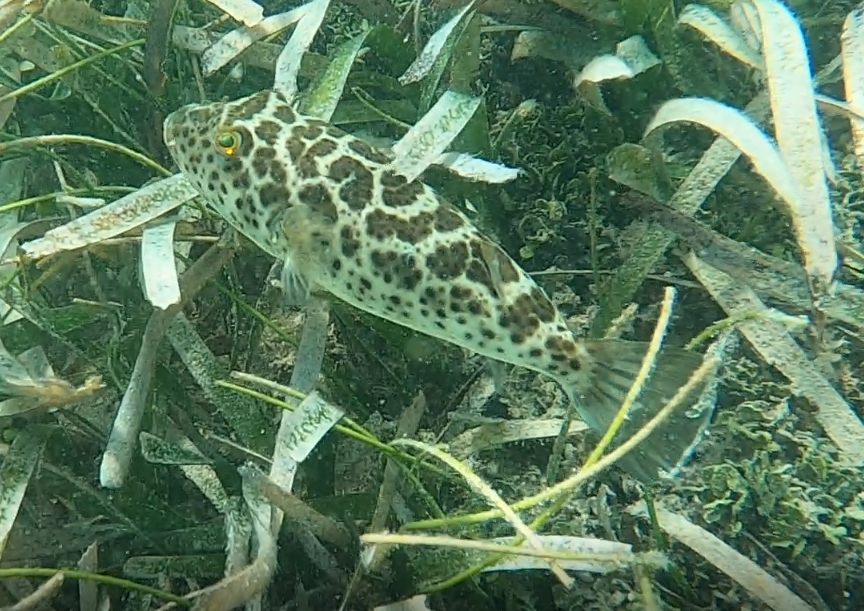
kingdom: Animalia
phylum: Chordata
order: Tetraodontiformes
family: Tetraodontidae
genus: Sphoeroides
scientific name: Sphoeroides testudineus
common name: Checkered puffer
